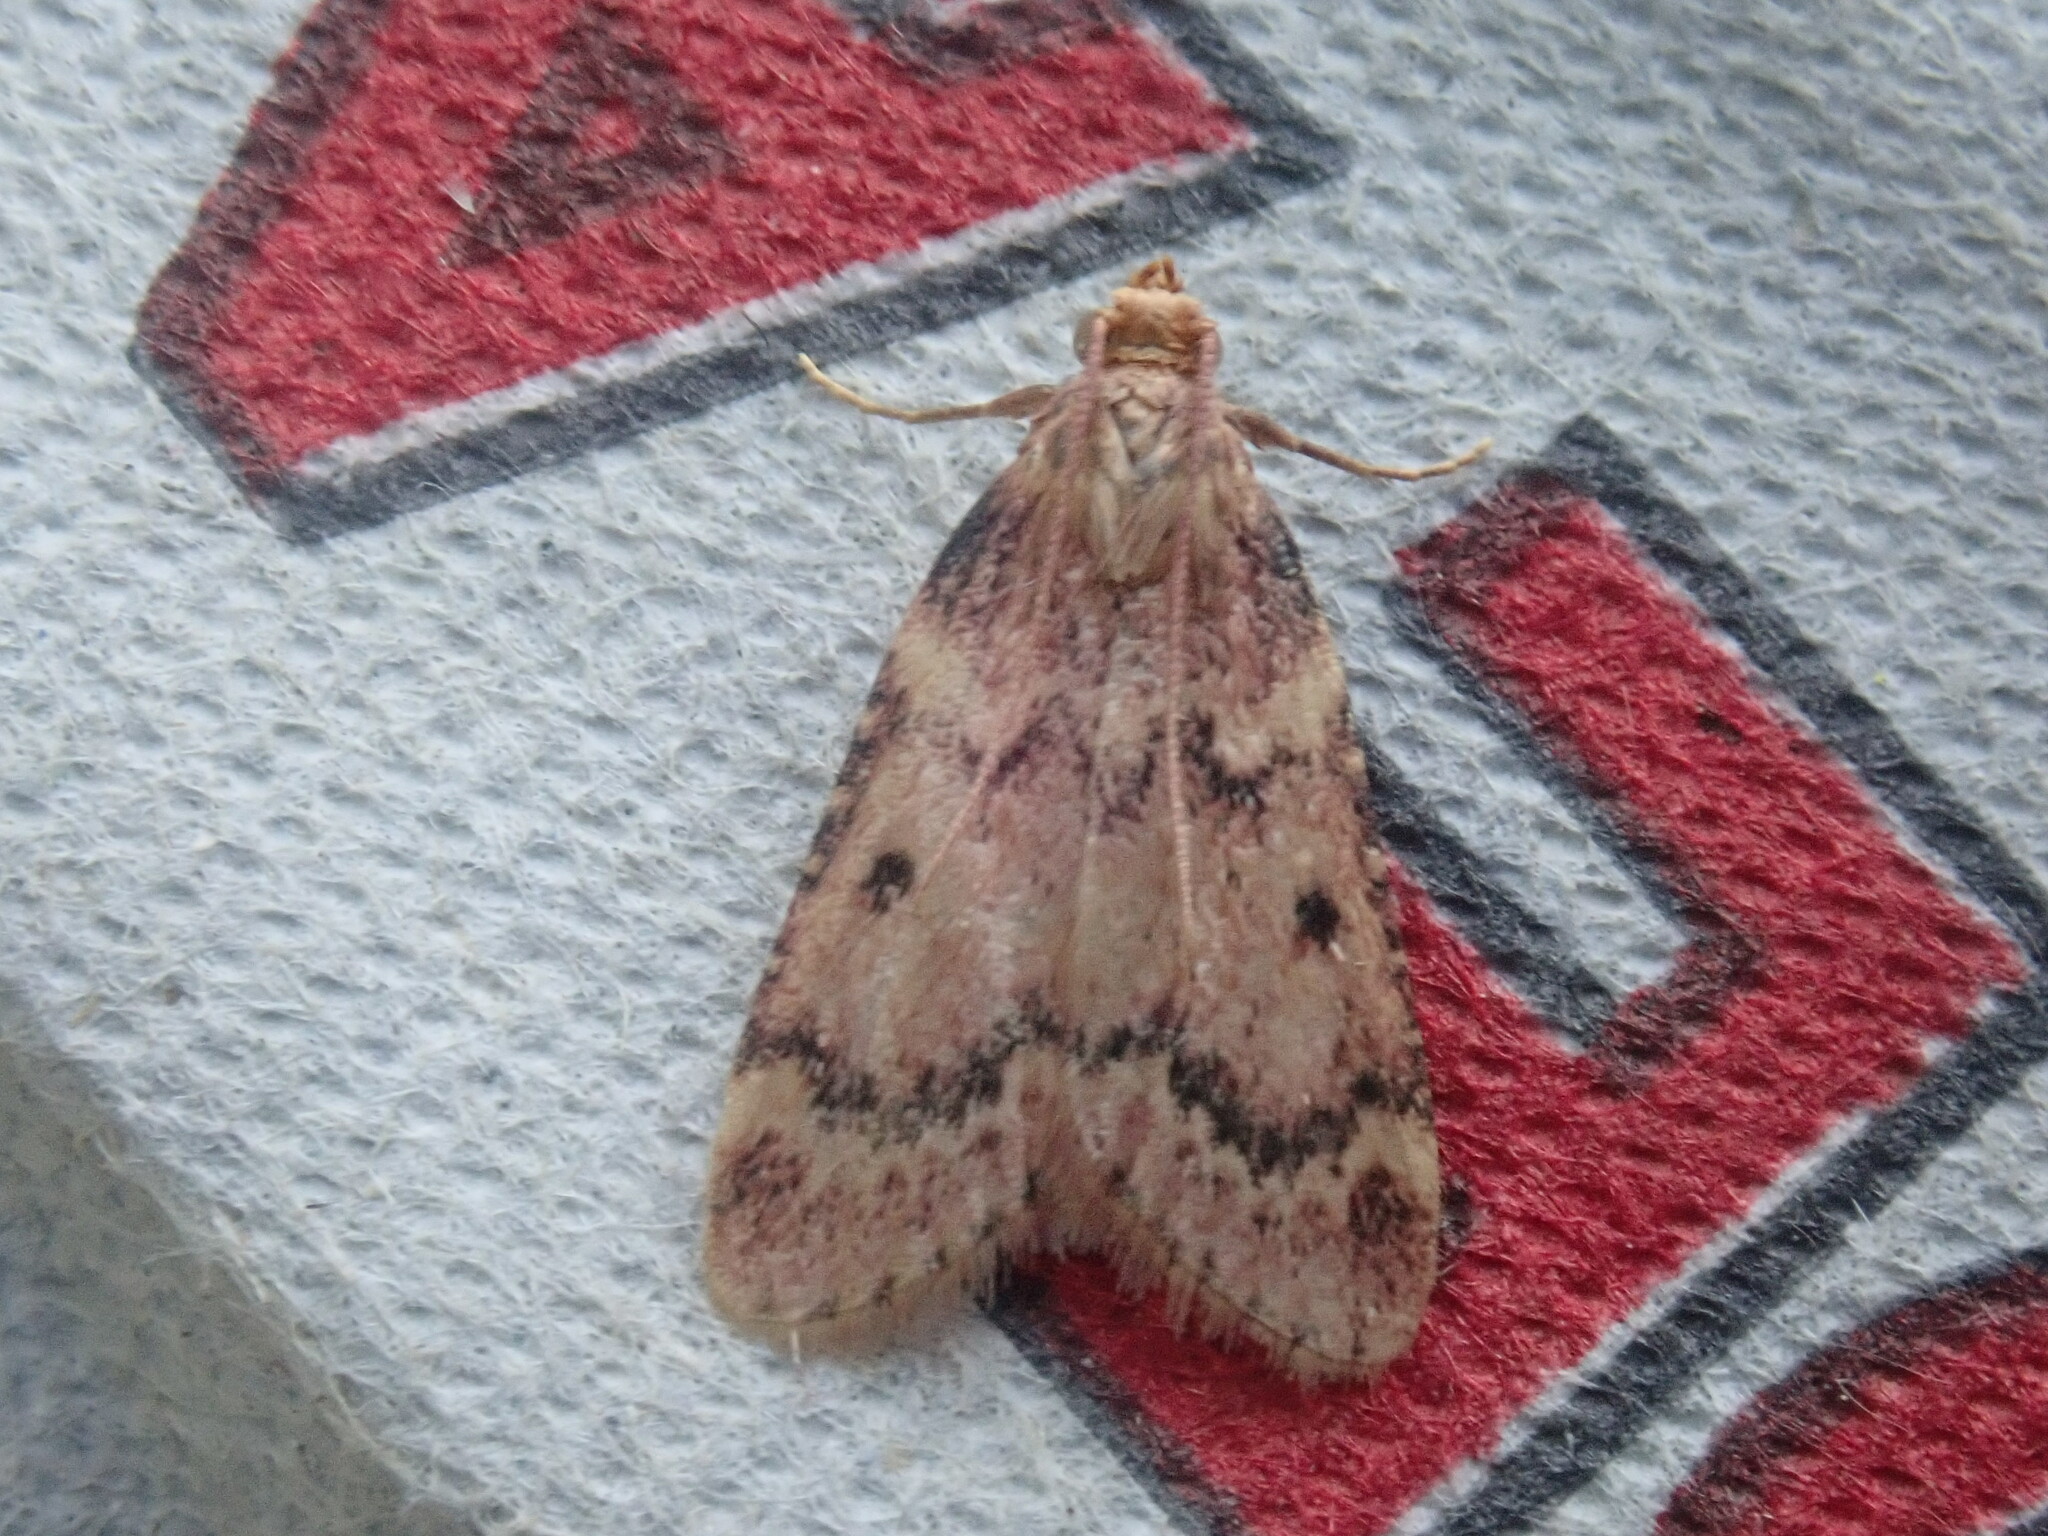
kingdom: Animalia
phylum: Arthropoda
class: Insecta
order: Lepidoptera
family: Pyralidae
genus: Aglossa
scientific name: Aglossa disciferalis
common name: Pink-masked pyralid moth
